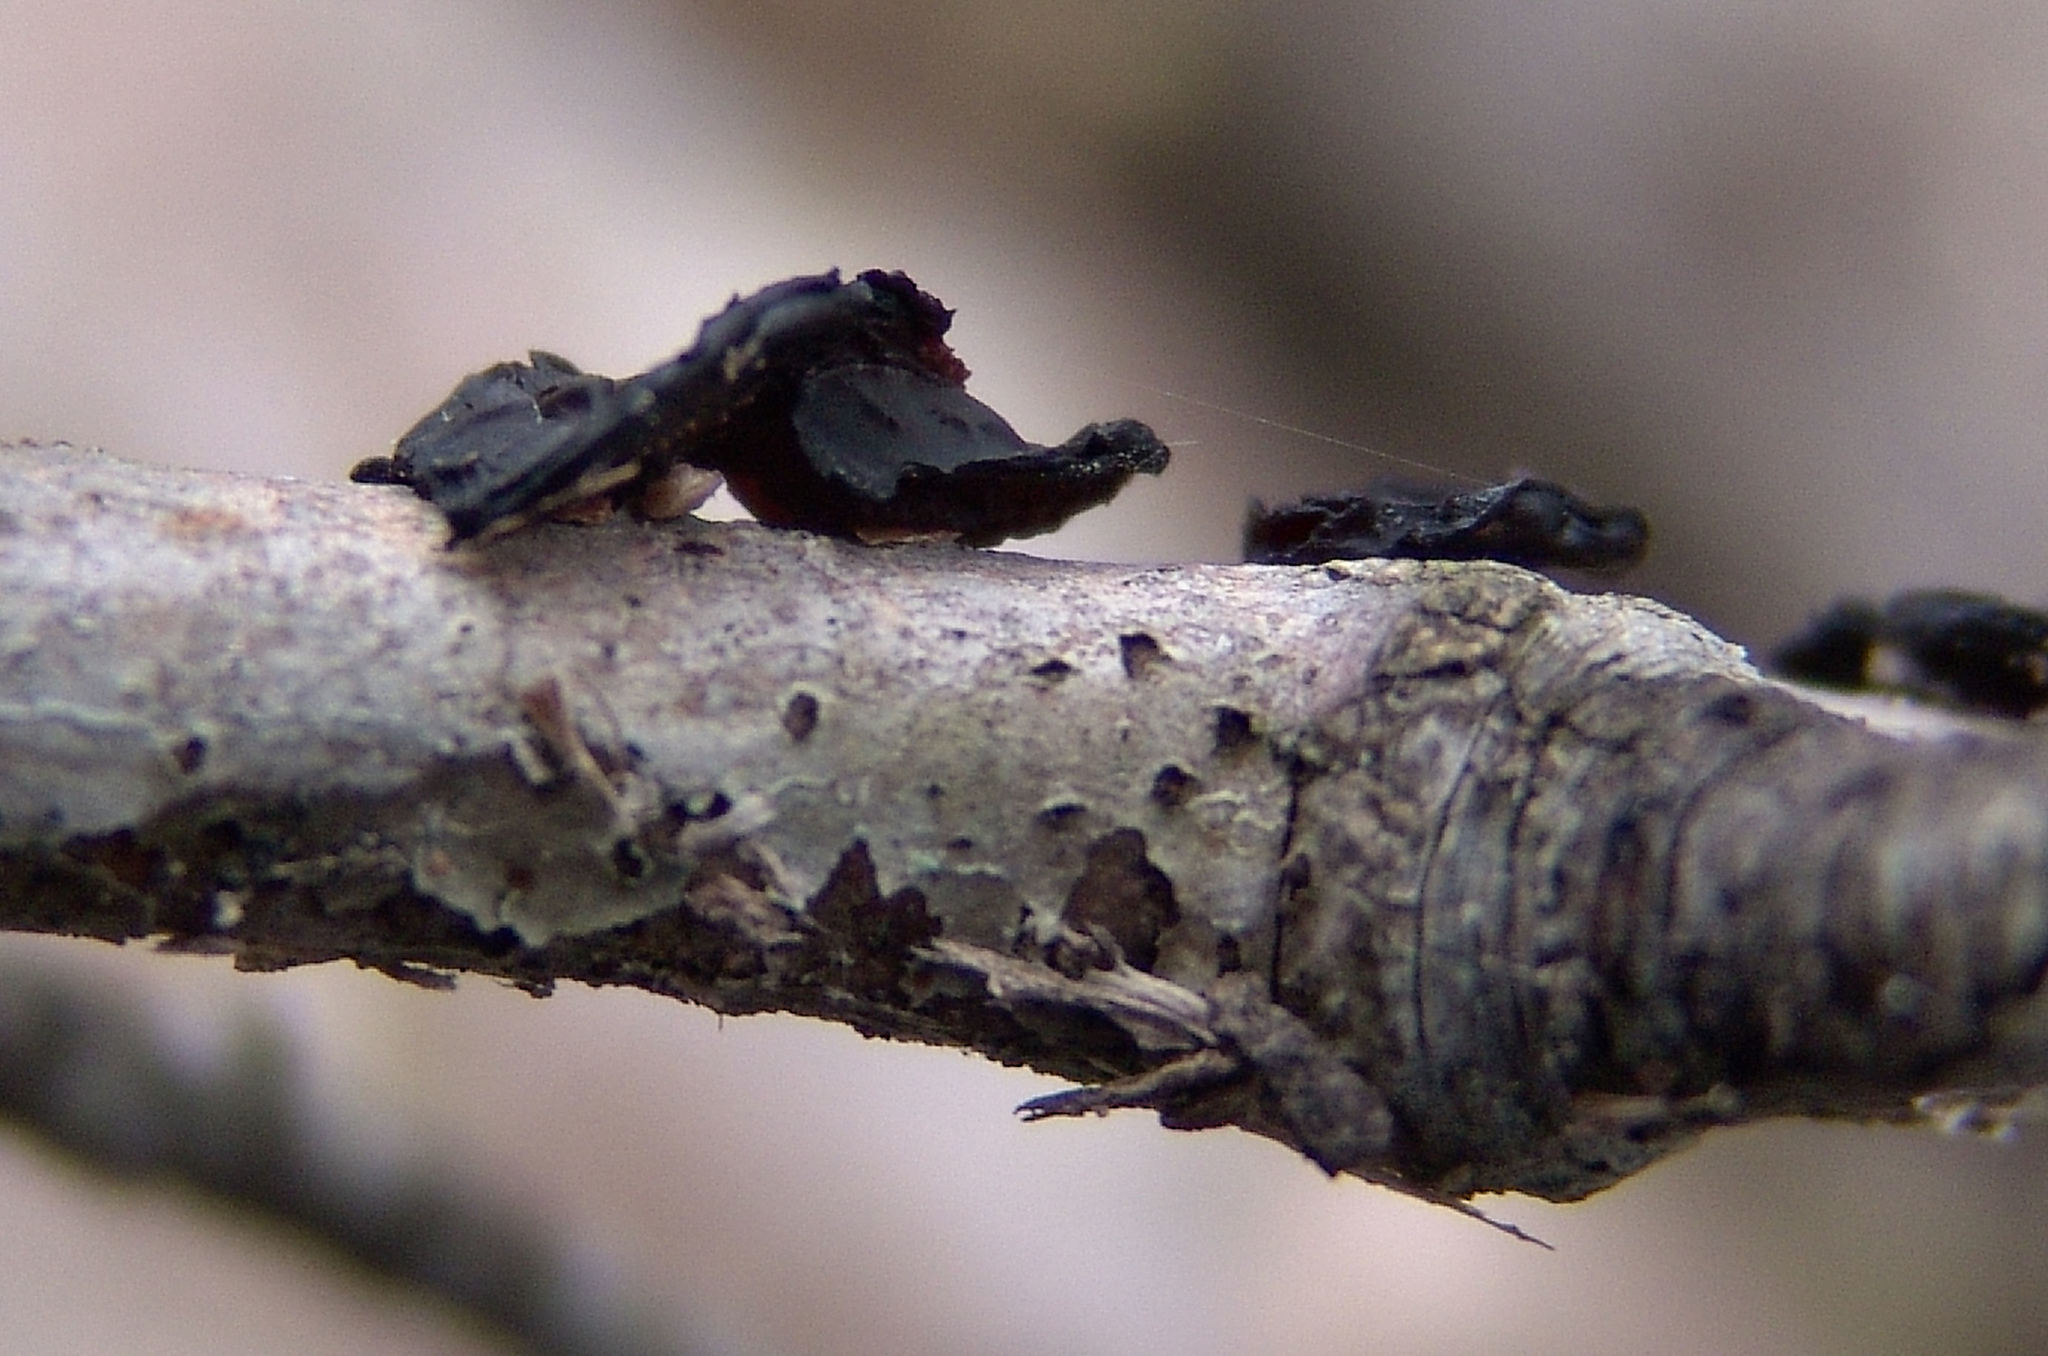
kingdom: Fungi
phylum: Basidiomycota
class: Agaricomycetes
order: Auriculariales
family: Auriculariaceae
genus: Exidia
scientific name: Exidia
